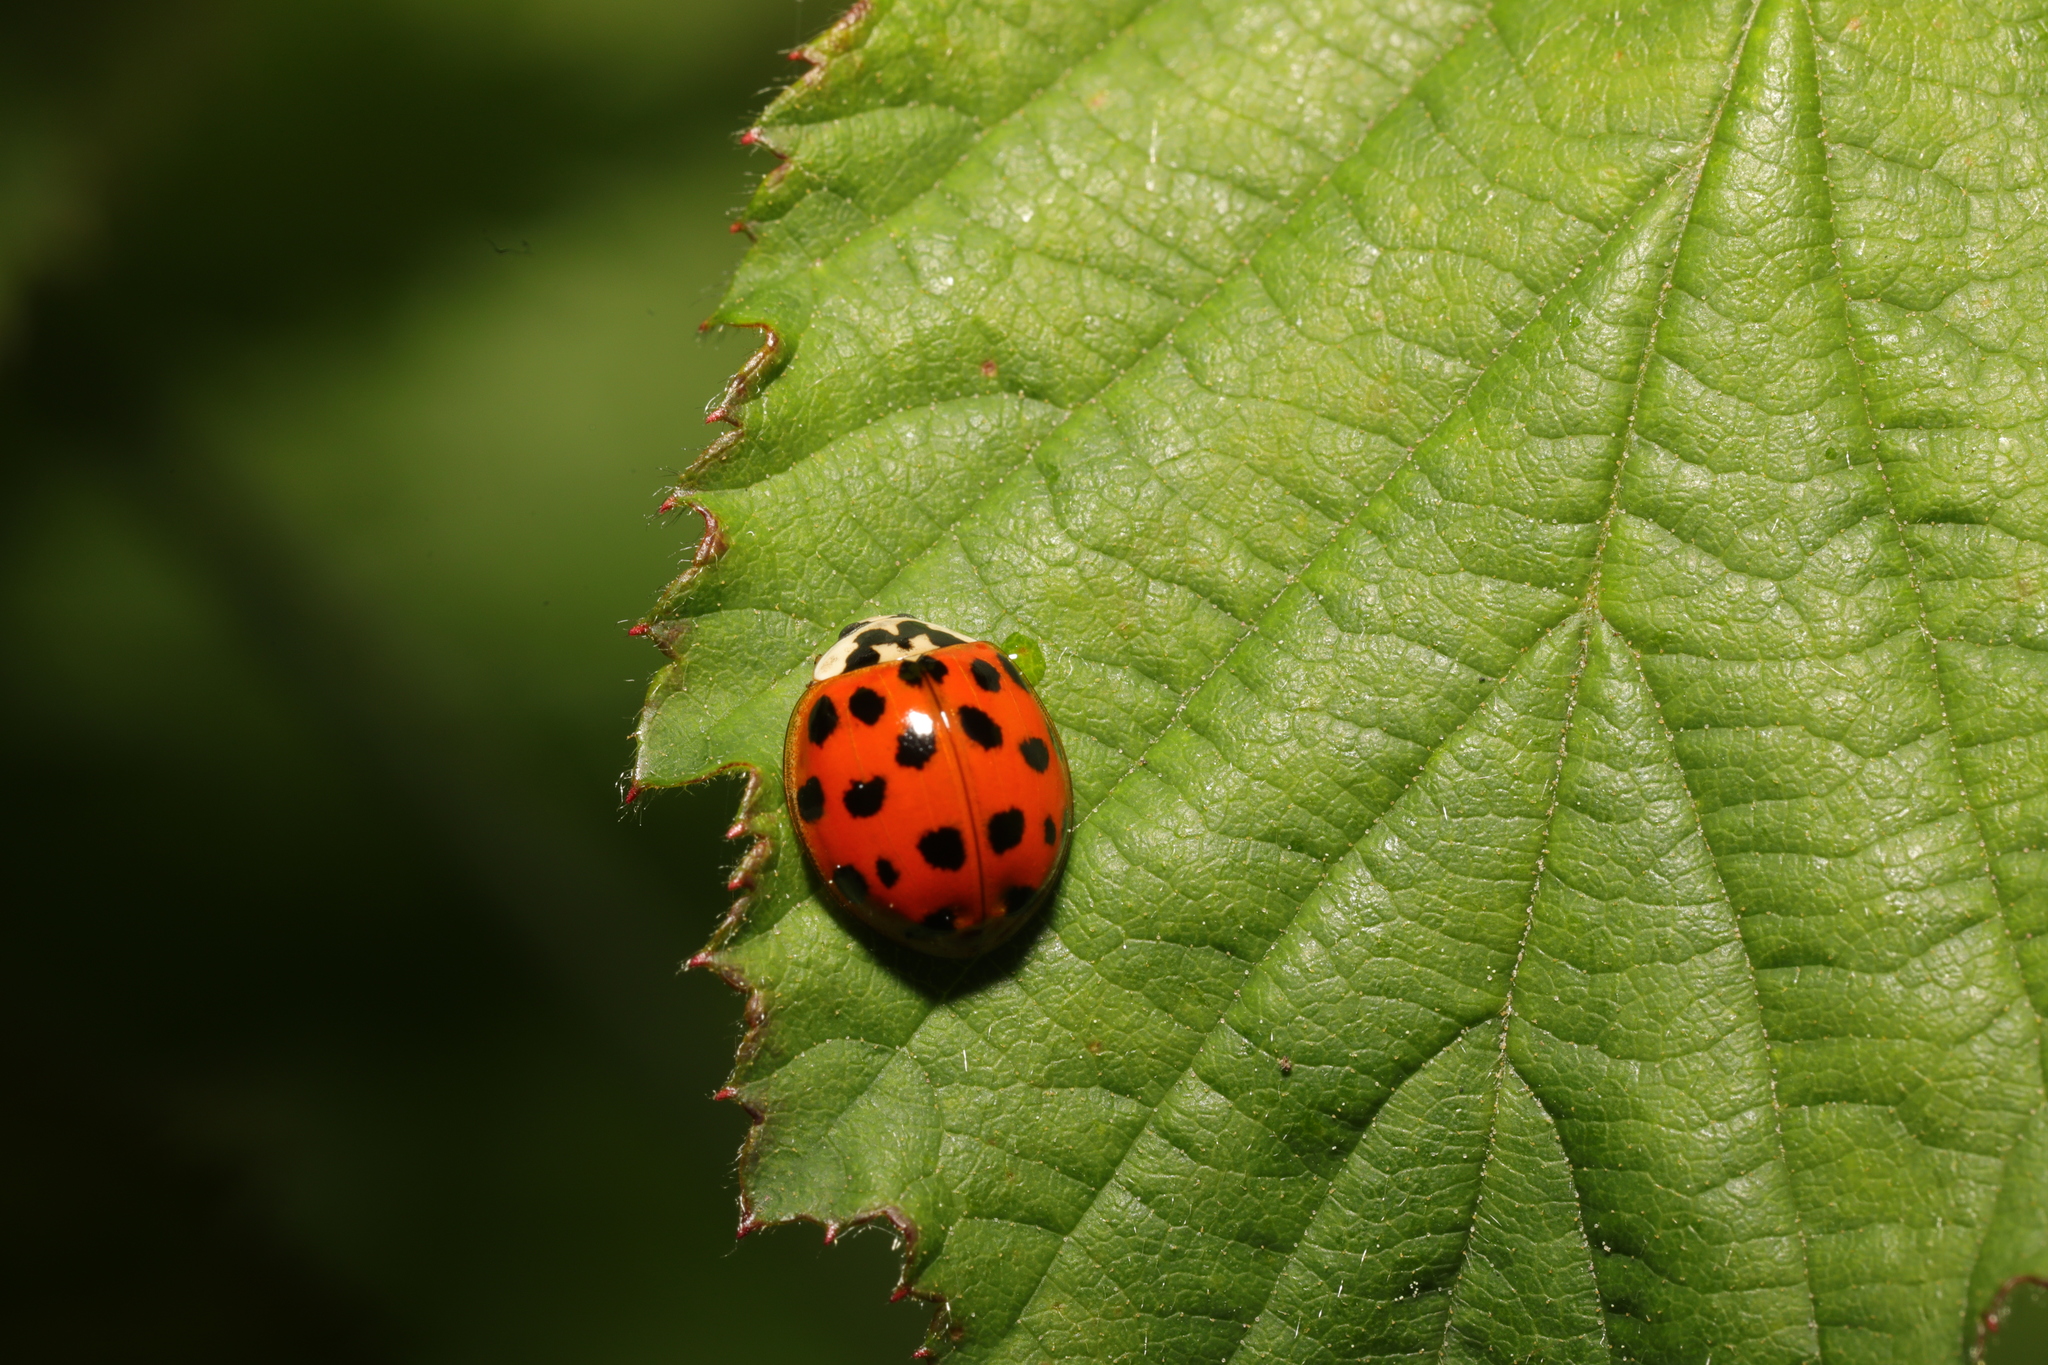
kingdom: Animalia
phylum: Arthropoda
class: Insecta
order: Coleoptera
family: Coccinellidae
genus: Harmonia
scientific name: Harmonia axyridis
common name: Harlequin ladybird
